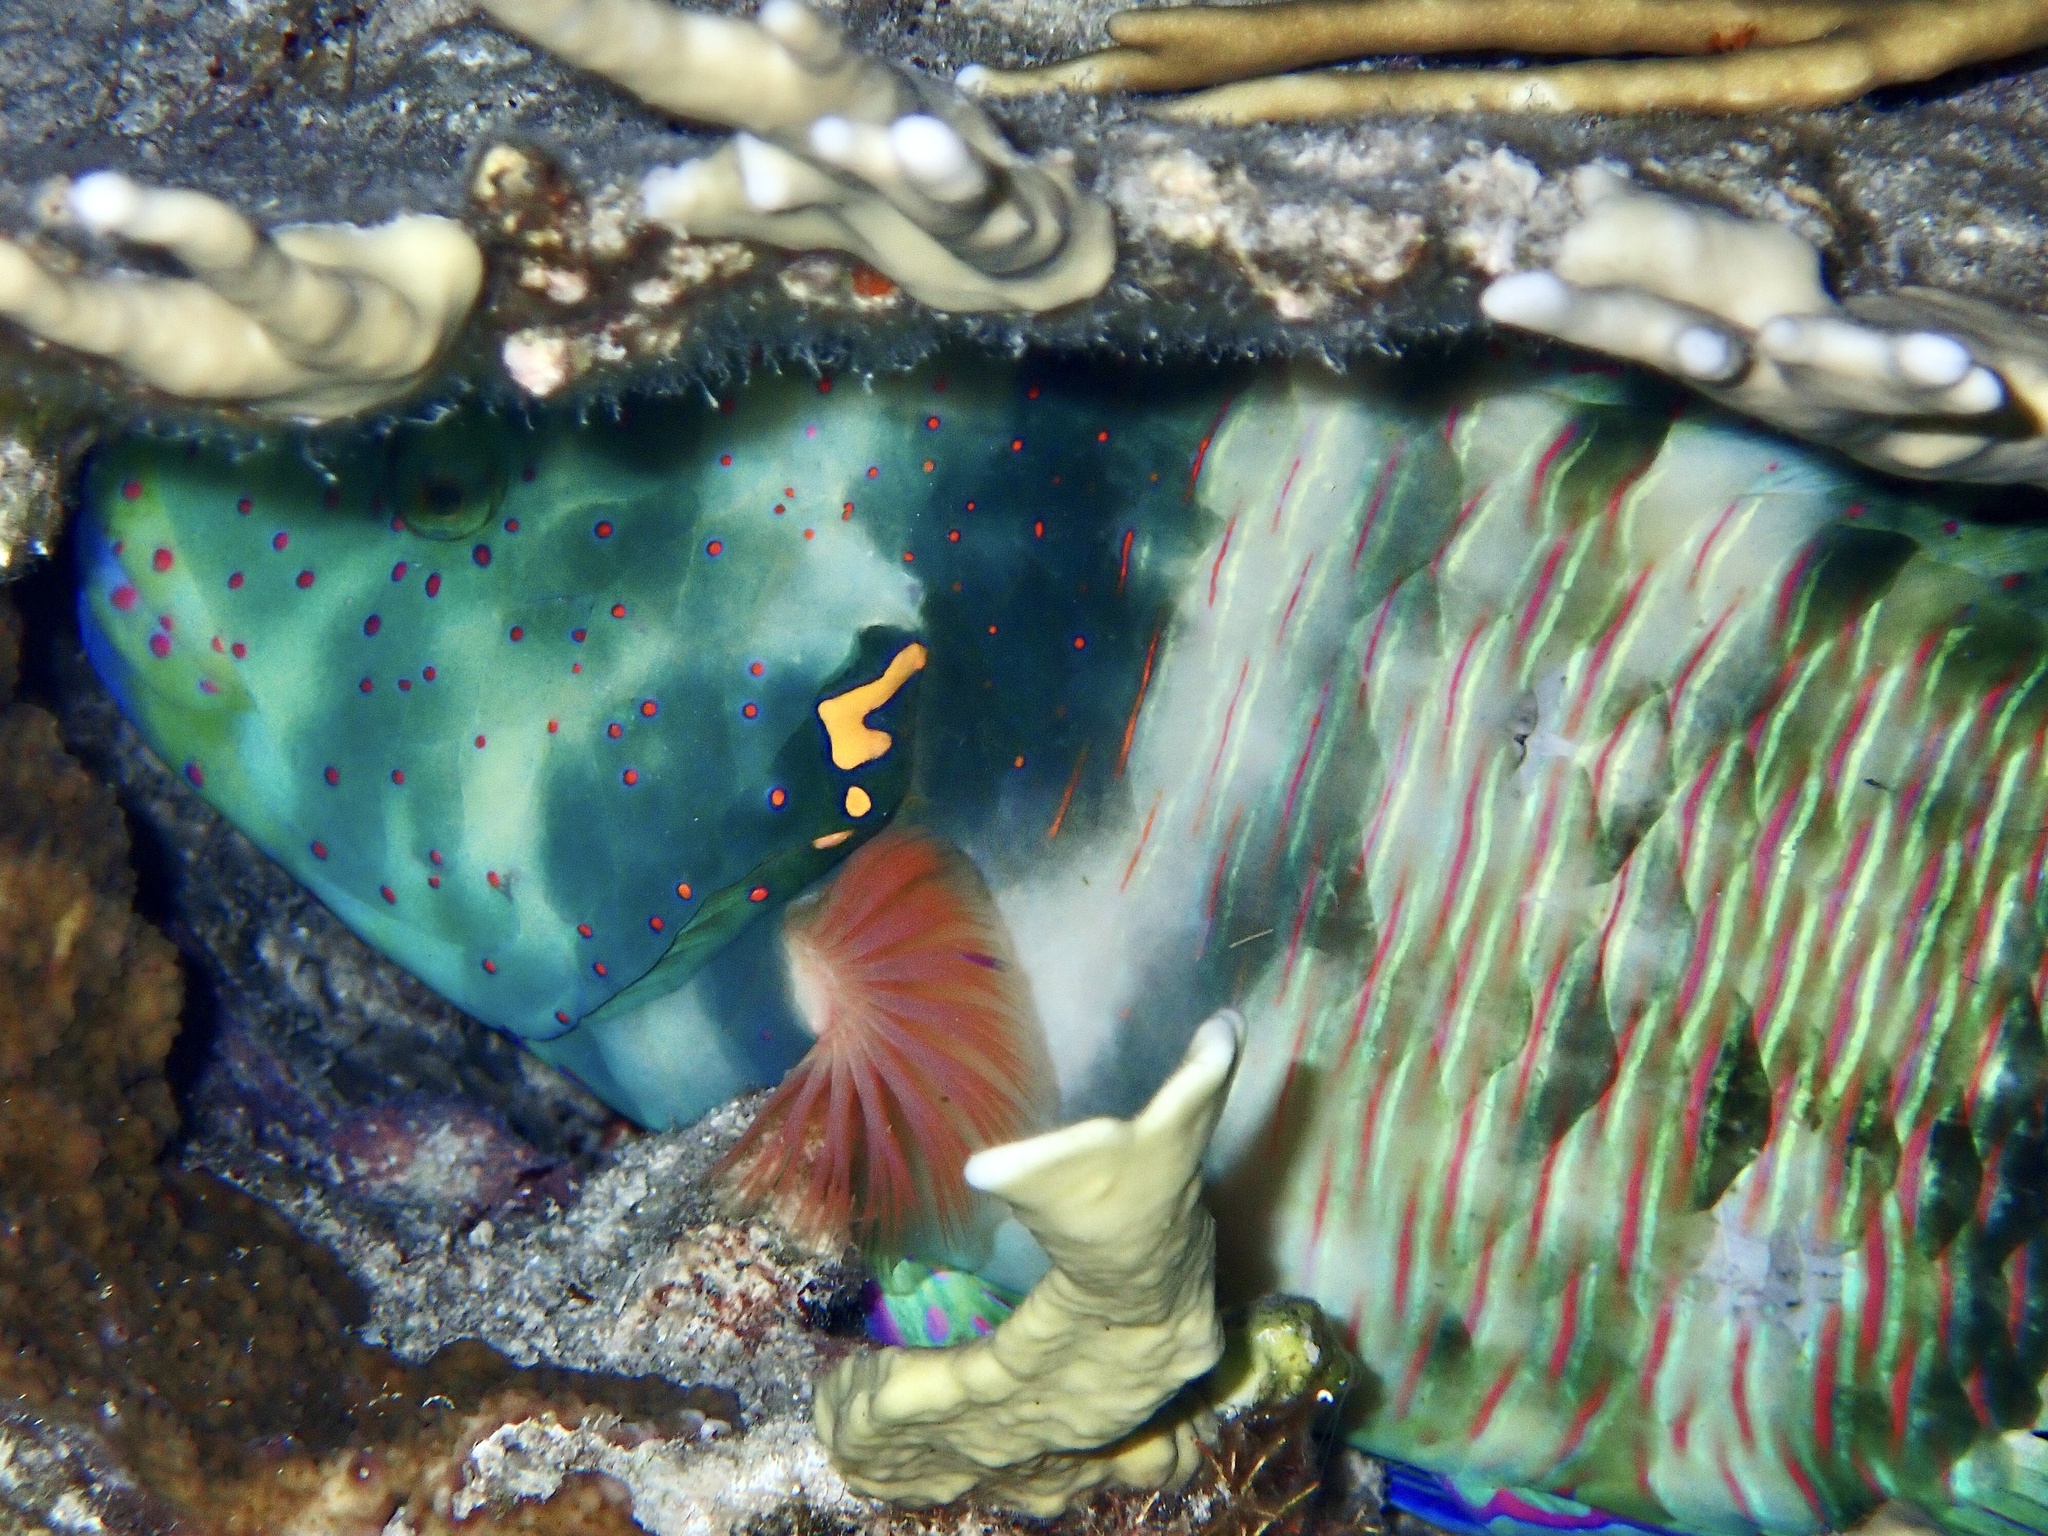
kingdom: Animalia
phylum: Chordata
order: Perciformes
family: Labridae
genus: Cheilinus
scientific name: Cheilinus lunulatus
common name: Broomtail wrasse
